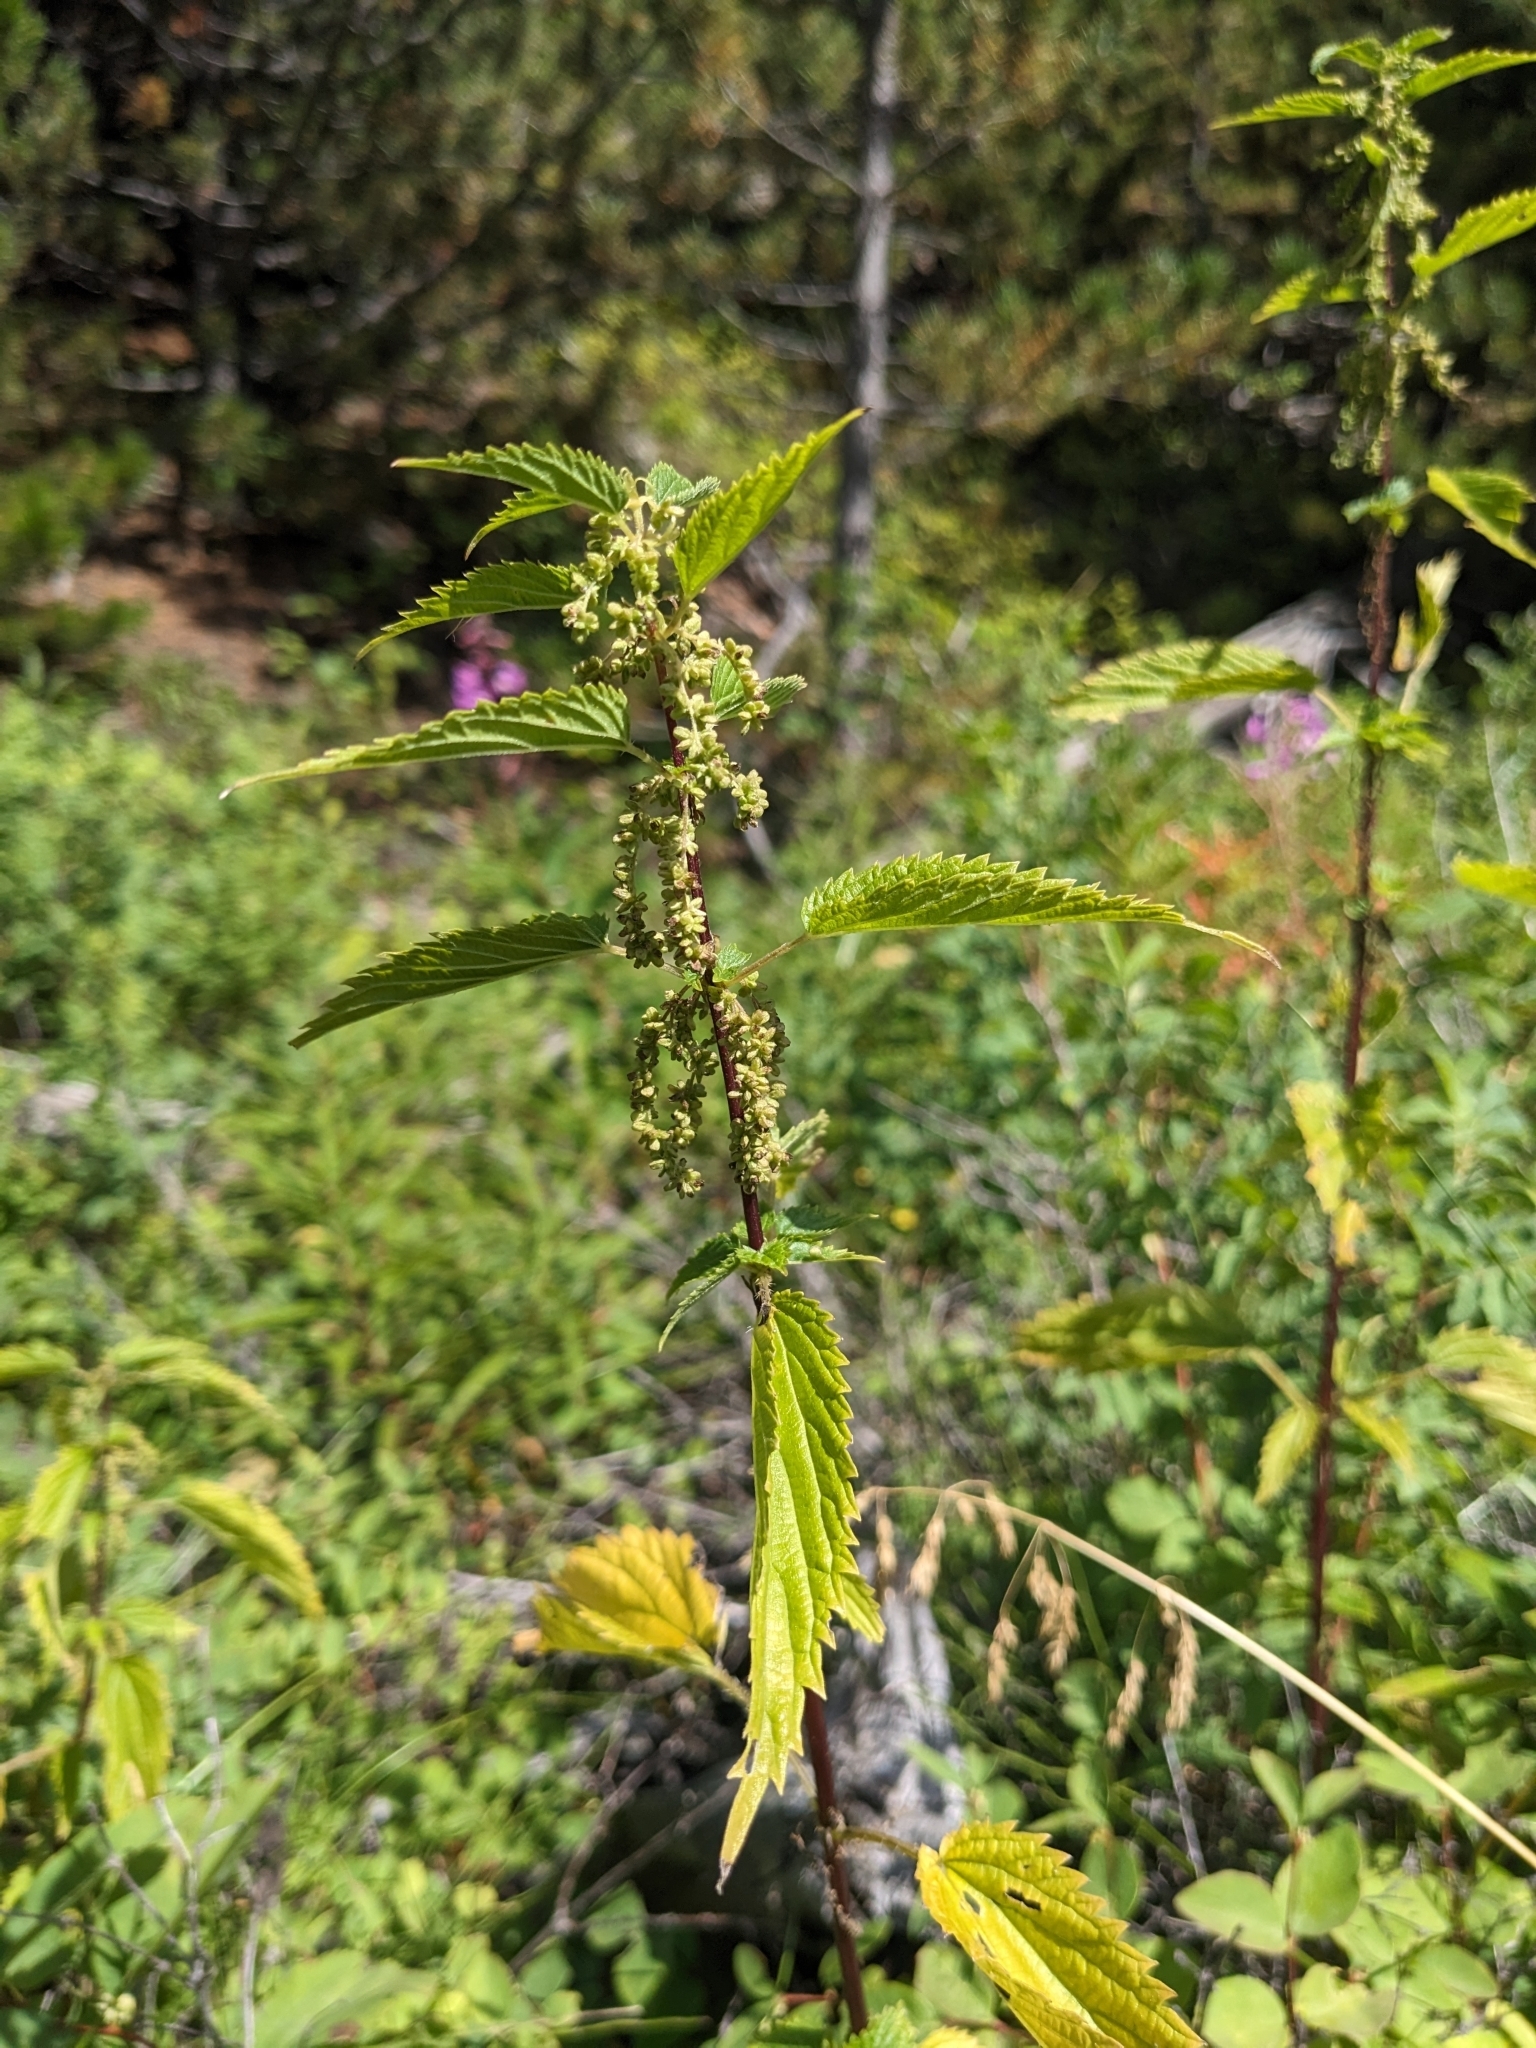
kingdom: Plantae
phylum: Tracheophyta
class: Magnoliopsida
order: Rosales
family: Urticaceae
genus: Urtica
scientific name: Urtica gracilis
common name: Slender stinging nettle
